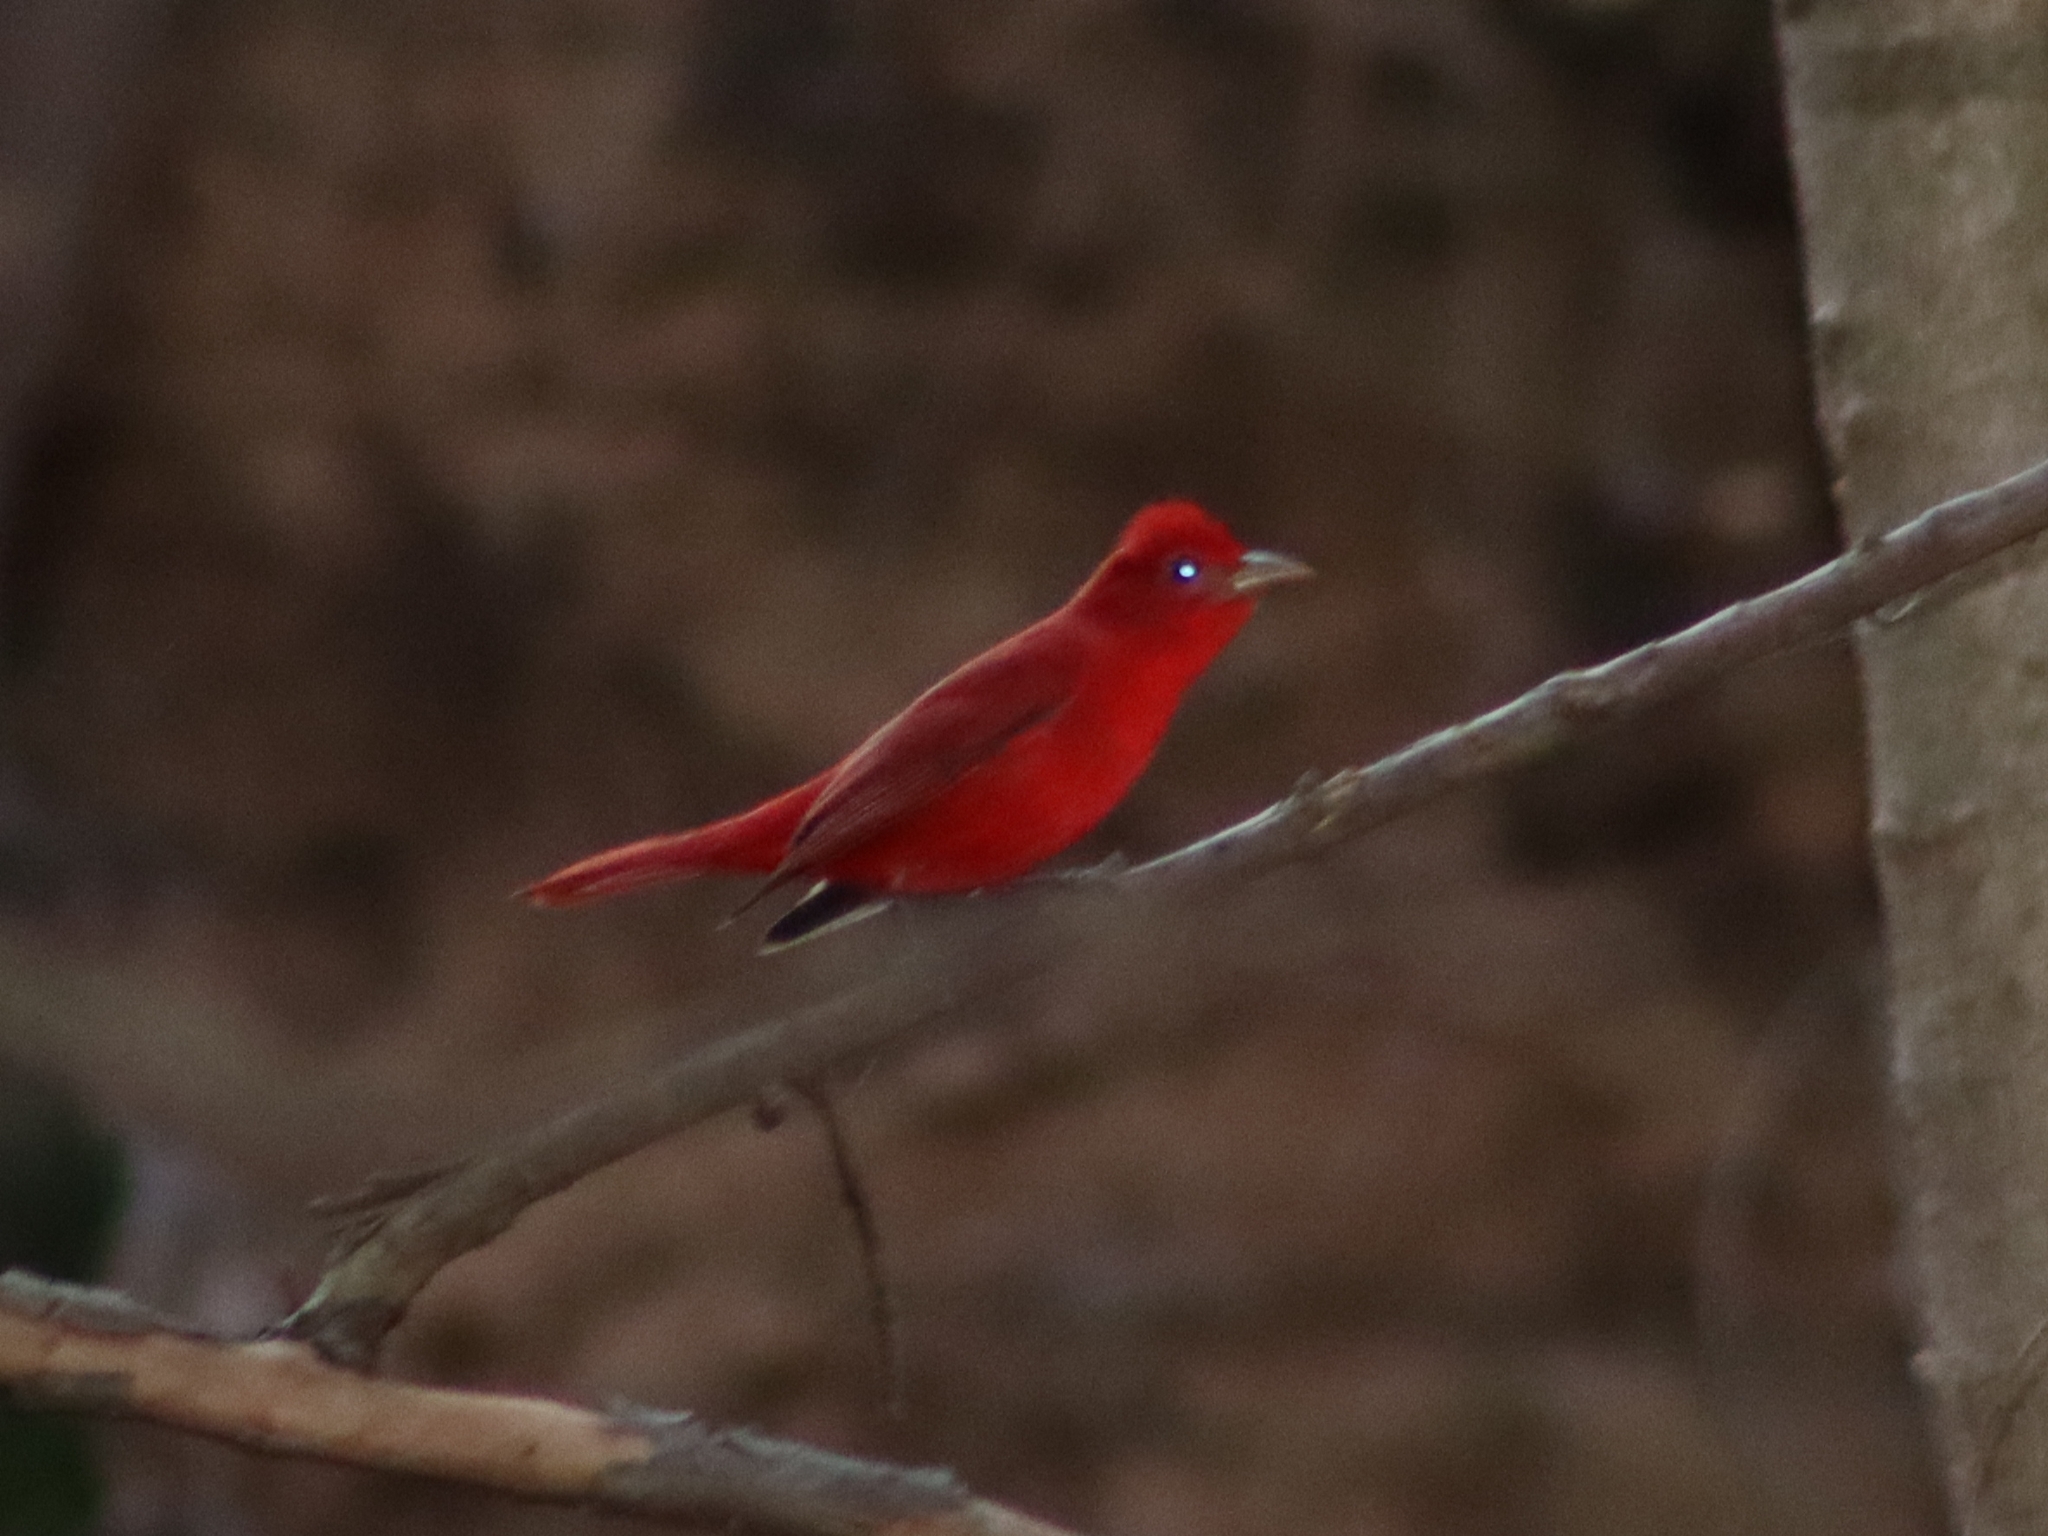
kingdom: Animalia
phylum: Chordata
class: Aves
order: Passeriformes
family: Cardinalidae
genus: Piranga
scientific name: Piranga rubra
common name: Summer tanager
